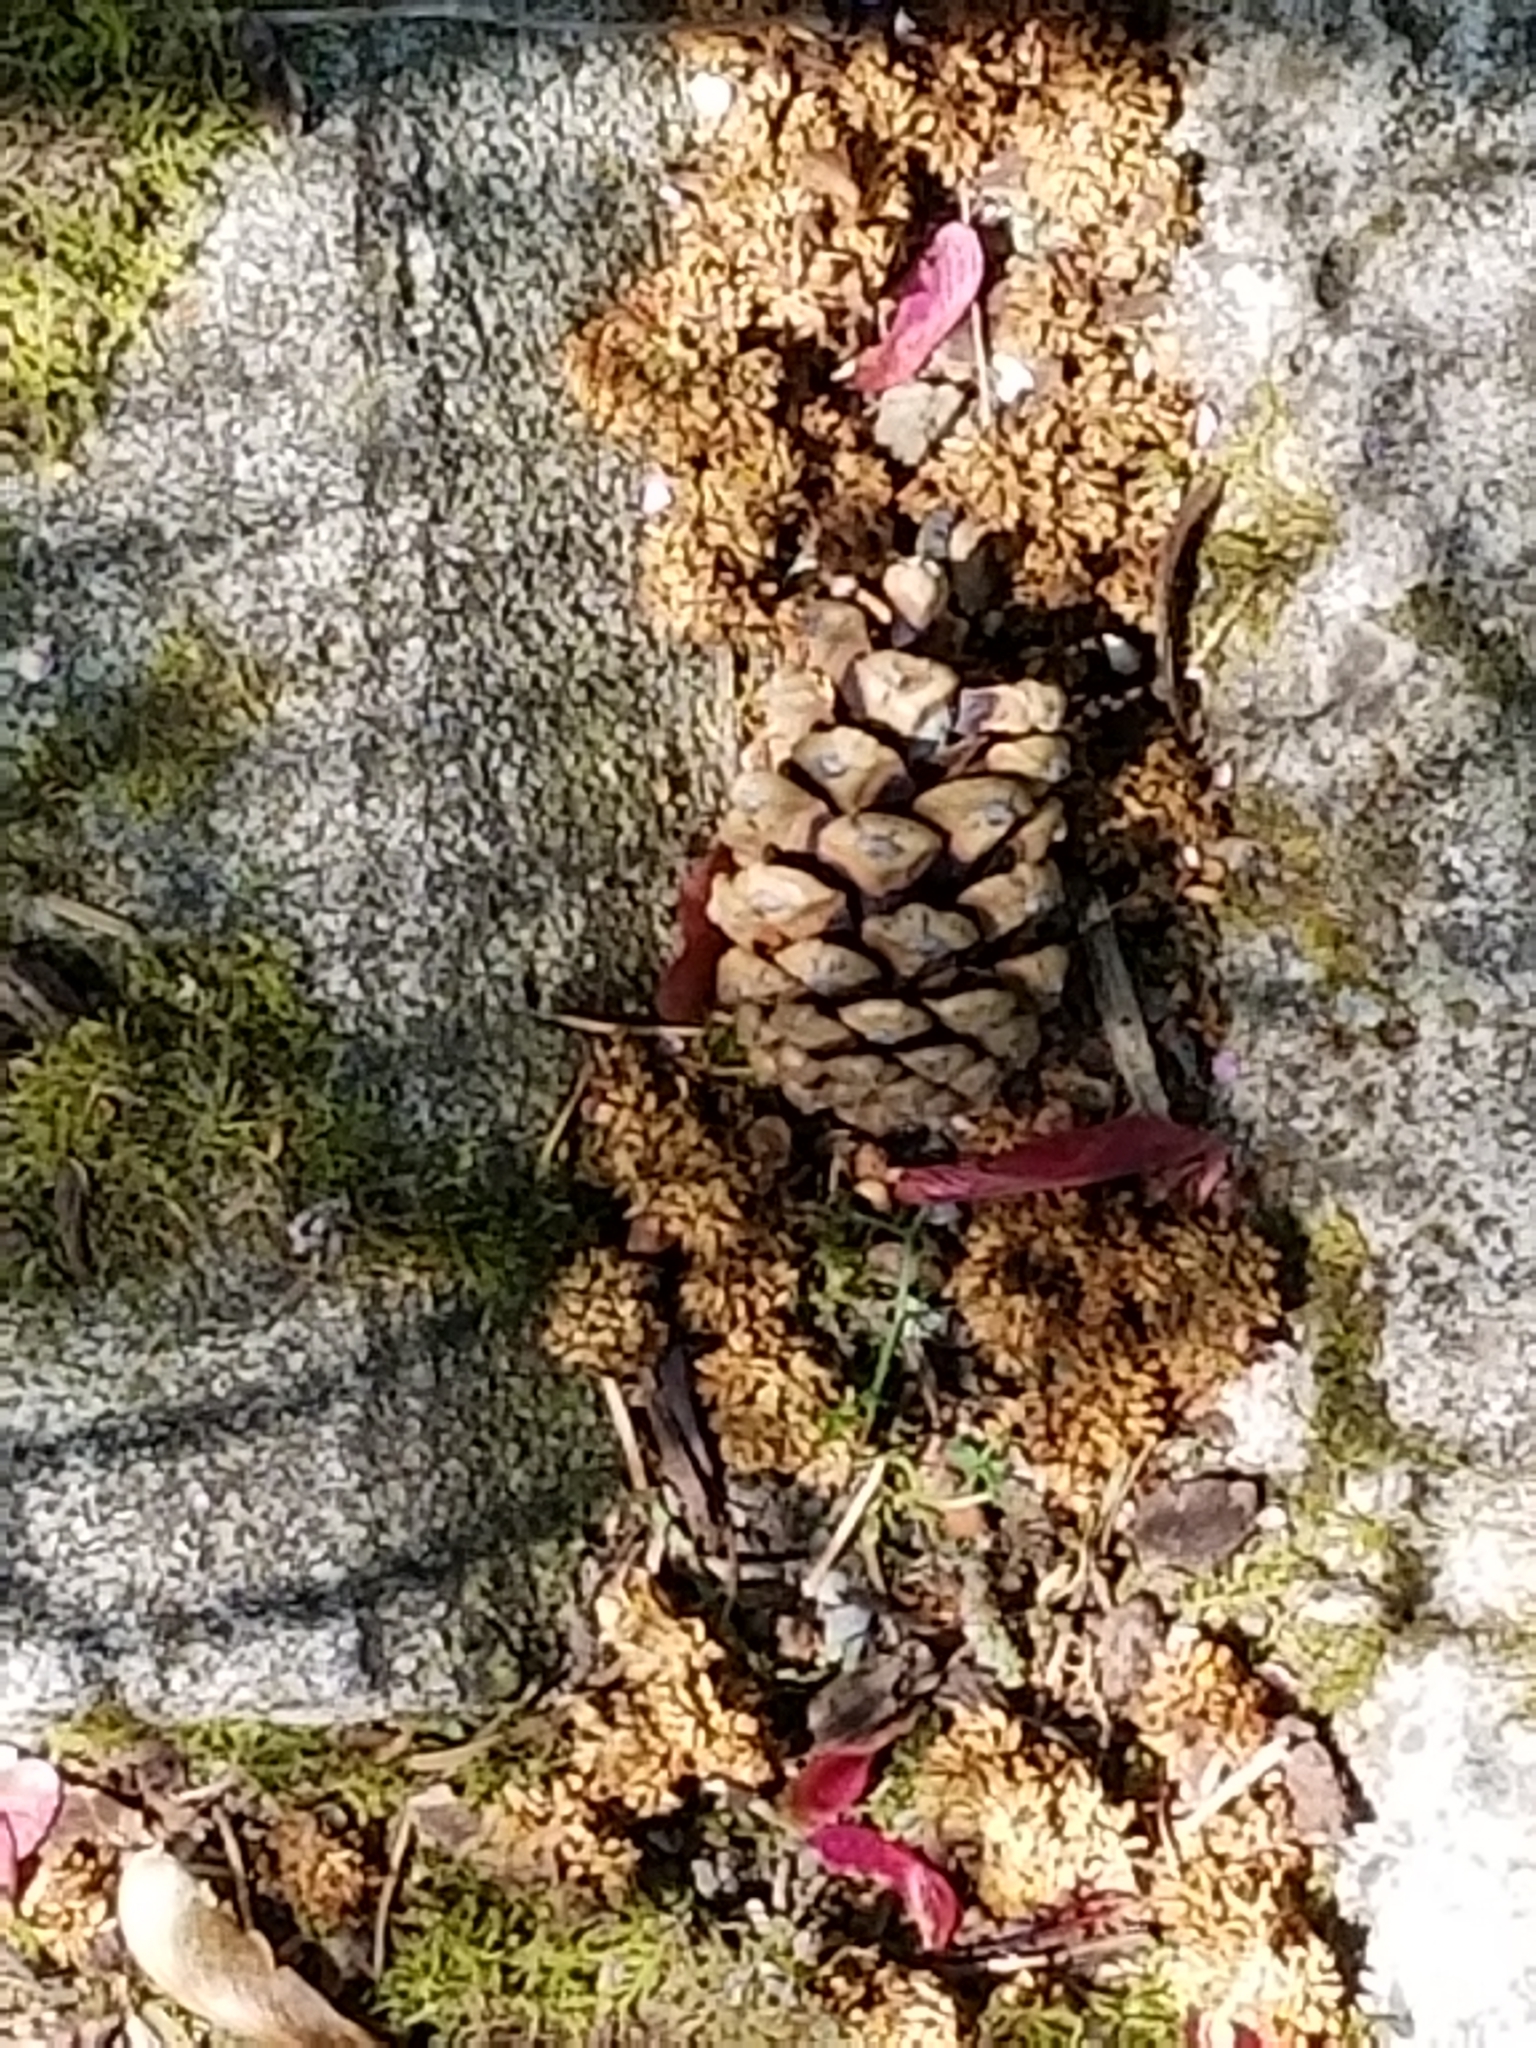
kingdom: Plantae
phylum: Tracheophyta
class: Pinopsida
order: Pinales
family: Pinaceae
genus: Abies
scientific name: Abies grandis
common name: Giant fir
